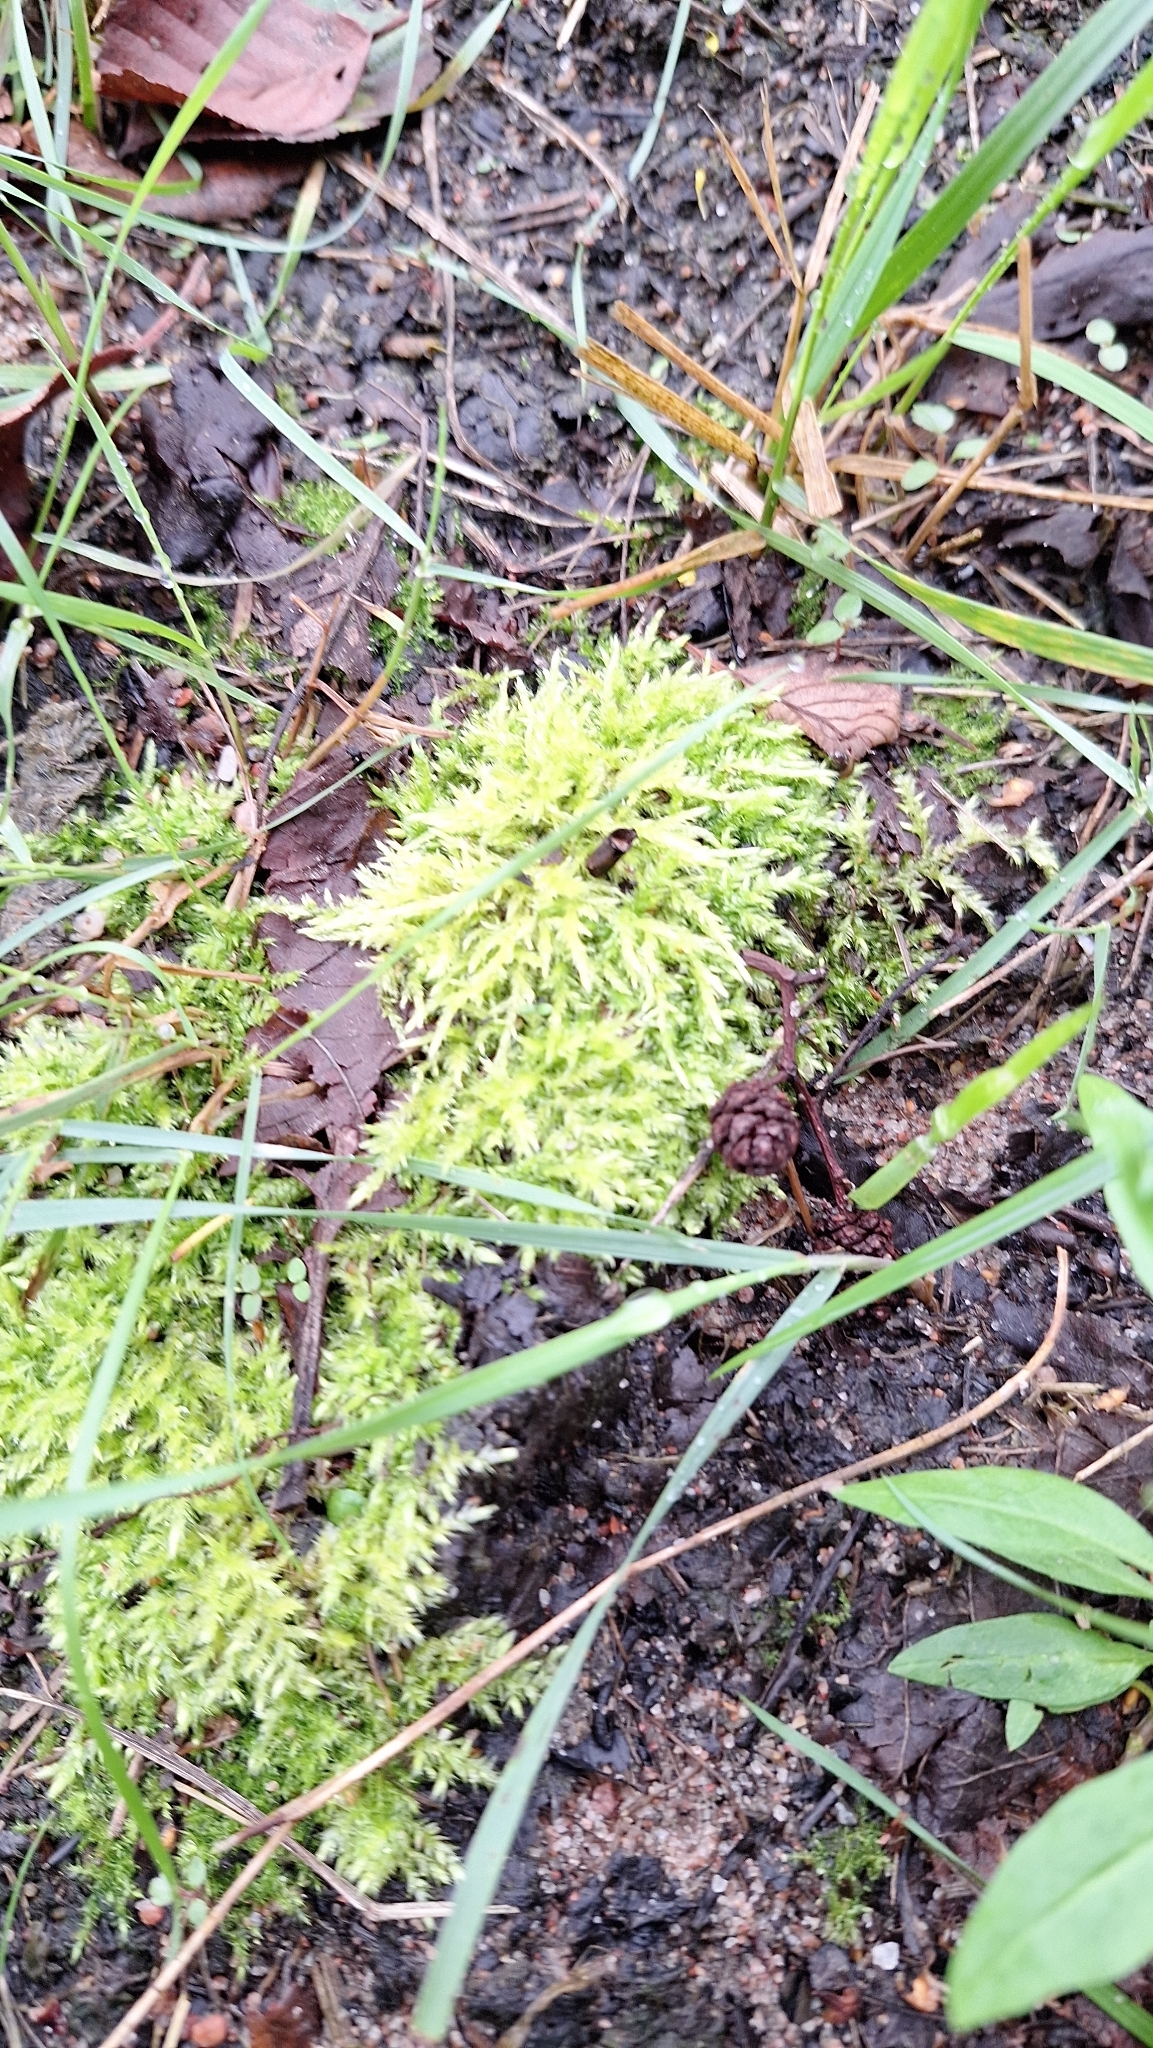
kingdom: Plantae
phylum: Bryophyta
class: Bryopsida
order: Hypnales
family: Brachytheciaceae
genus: Brachythecium
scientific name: Brachythecium rutabulum
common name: Rough-stalked feather-moss
